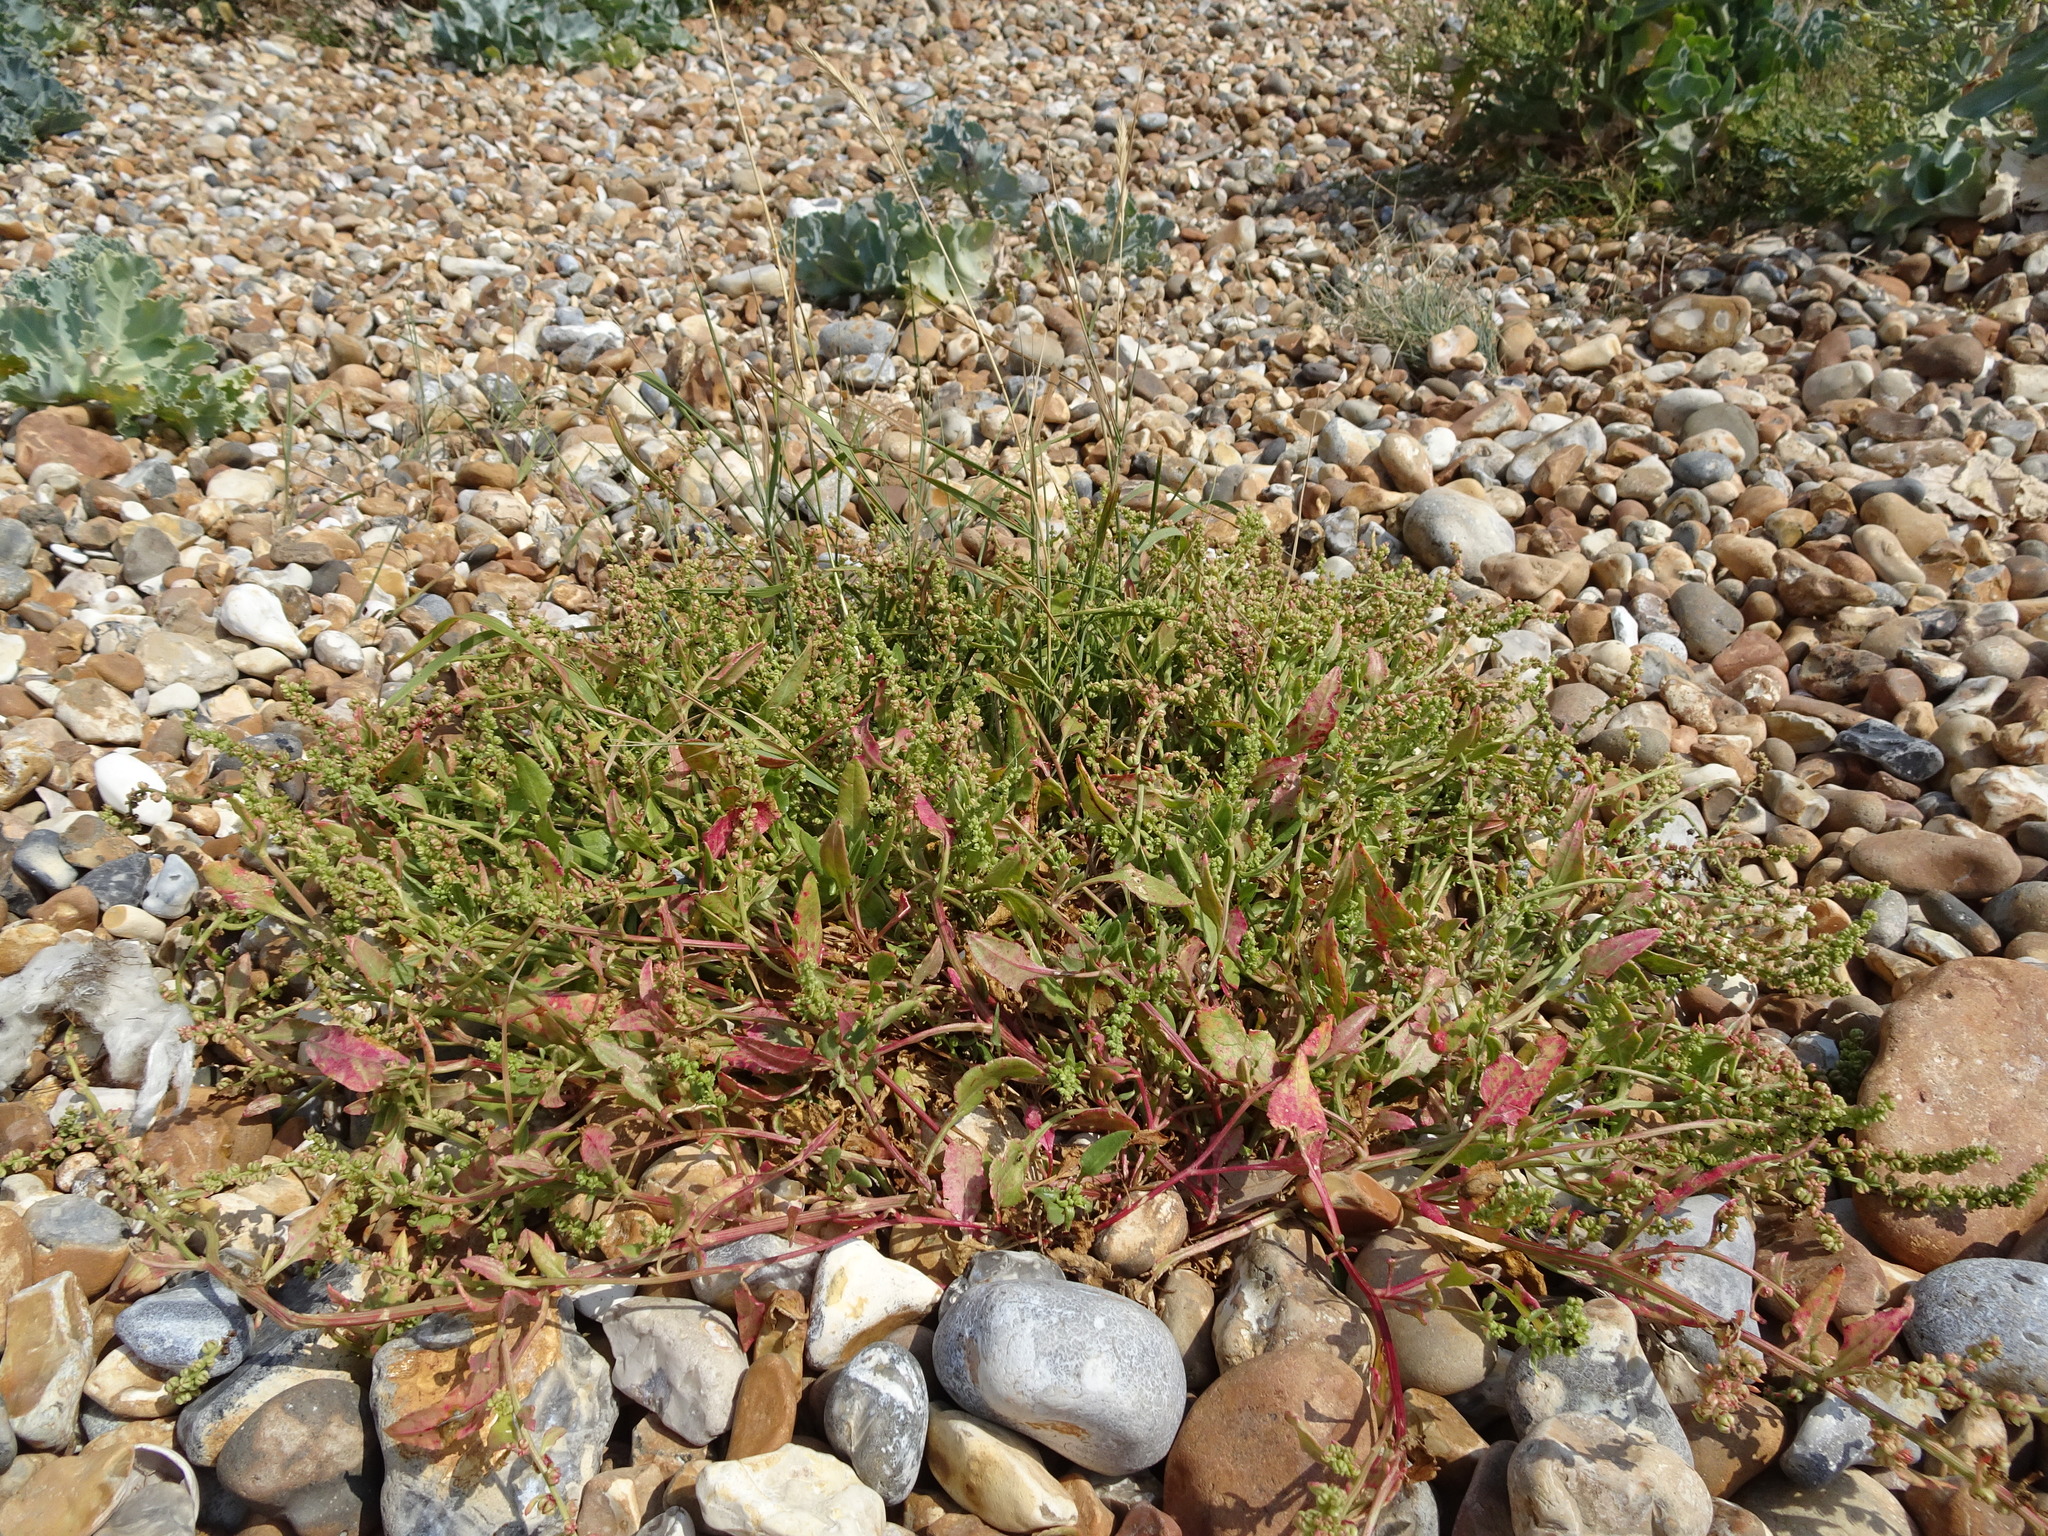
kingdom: Plantae
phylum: Tracheophyta
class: Magnoliopsida
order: Caryophyllales
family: Amaranthaceae
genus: Beta
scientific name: Beta vulgaris
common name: Beet
